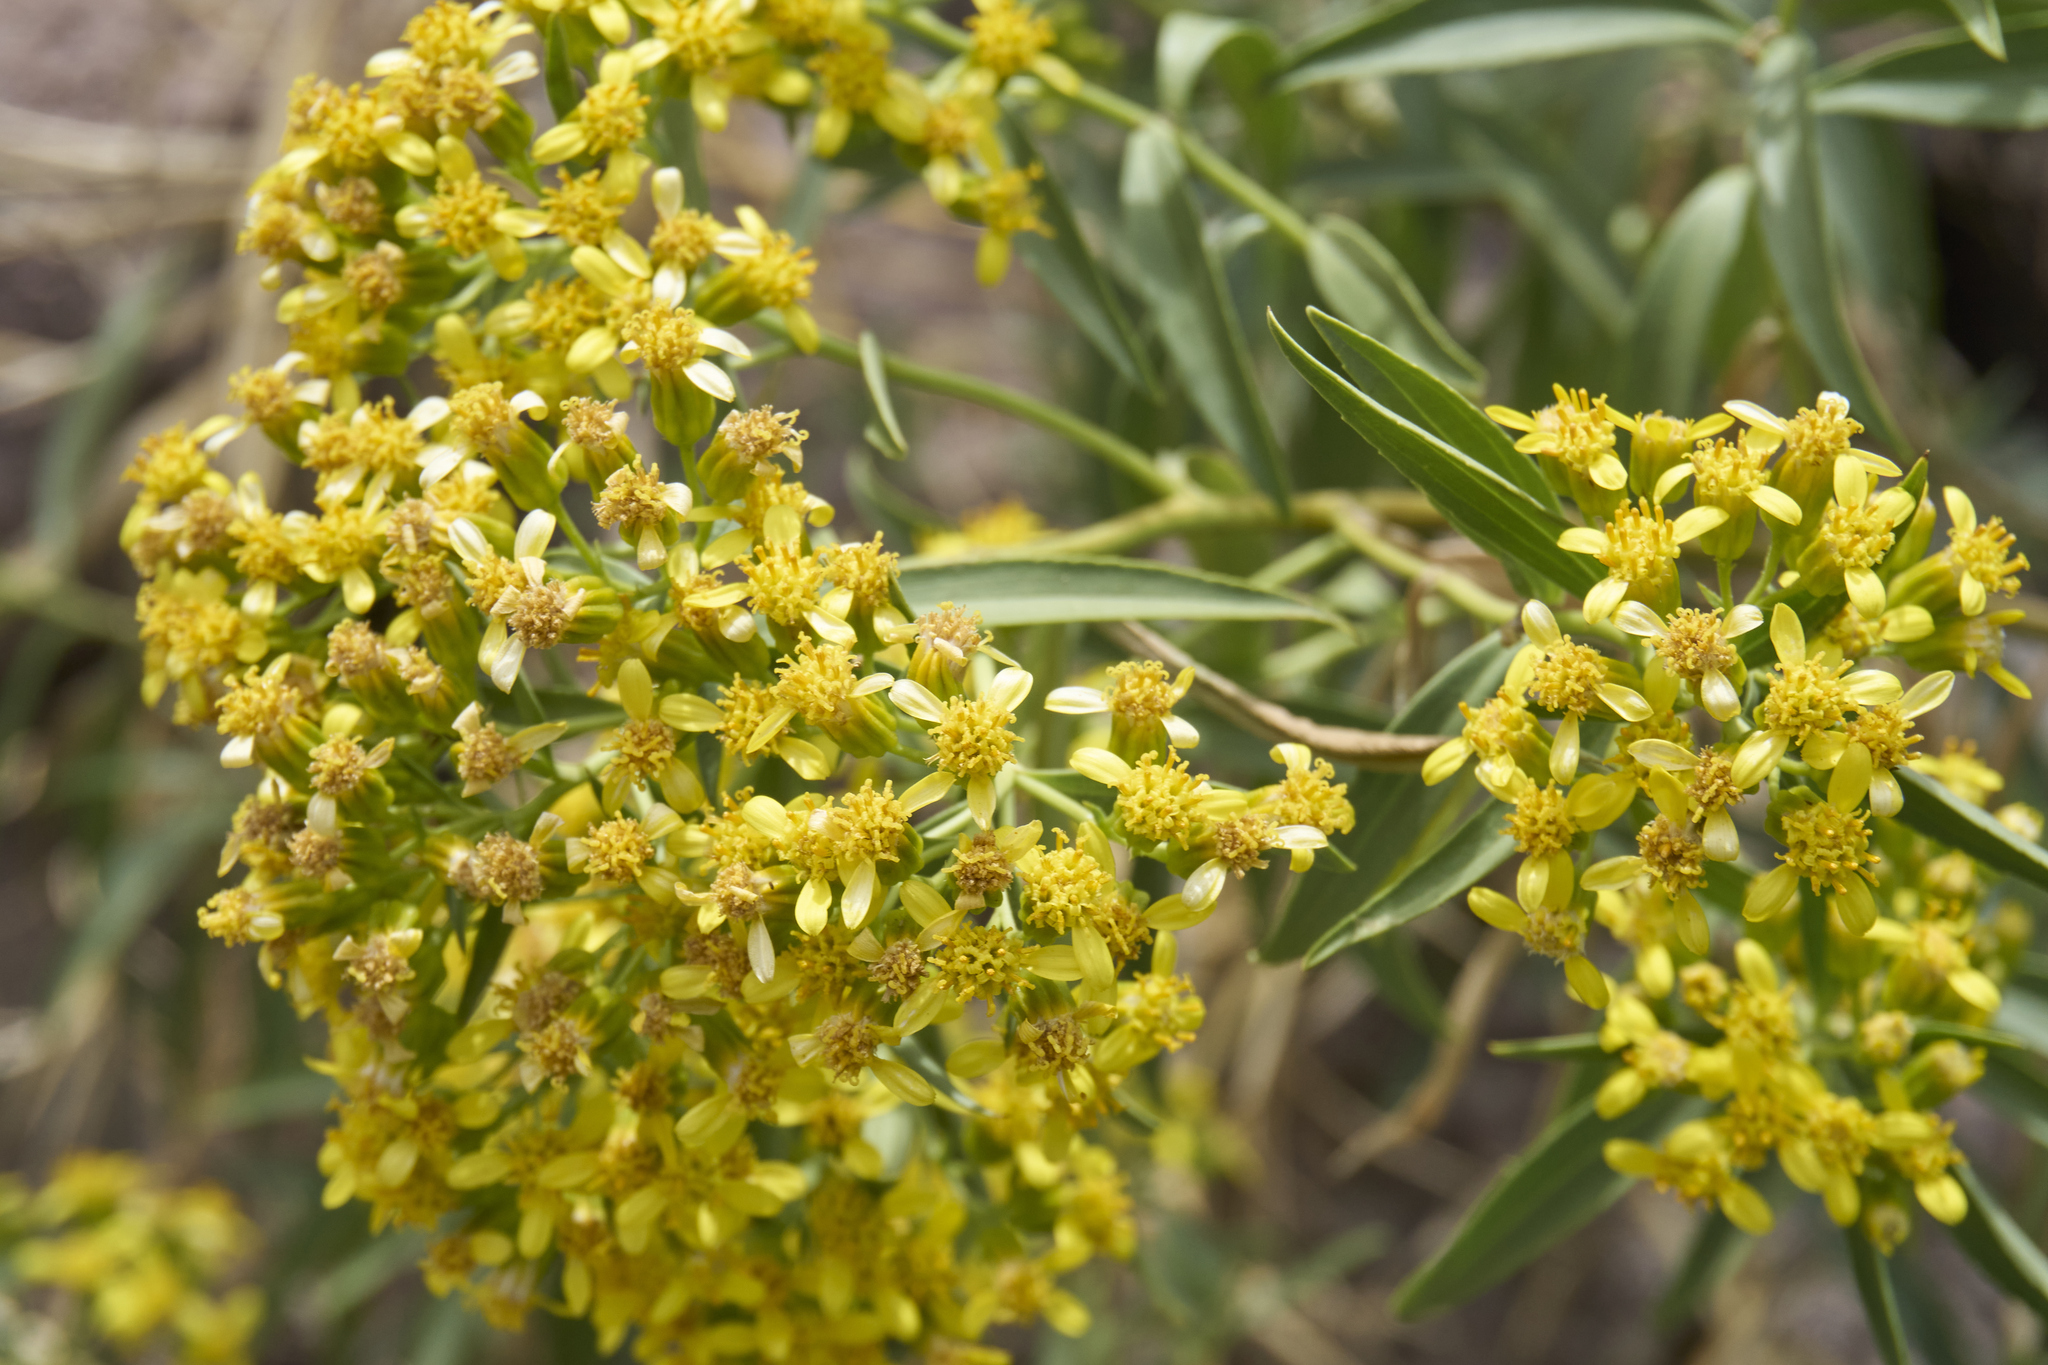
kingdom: Plantae
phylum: Tracheophyta
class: Magnoliopsida
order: Asterales
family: Asteraceae
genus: Barkleyanthus
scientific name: Barkleyanthus salicifolius
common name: Willow ragwort
